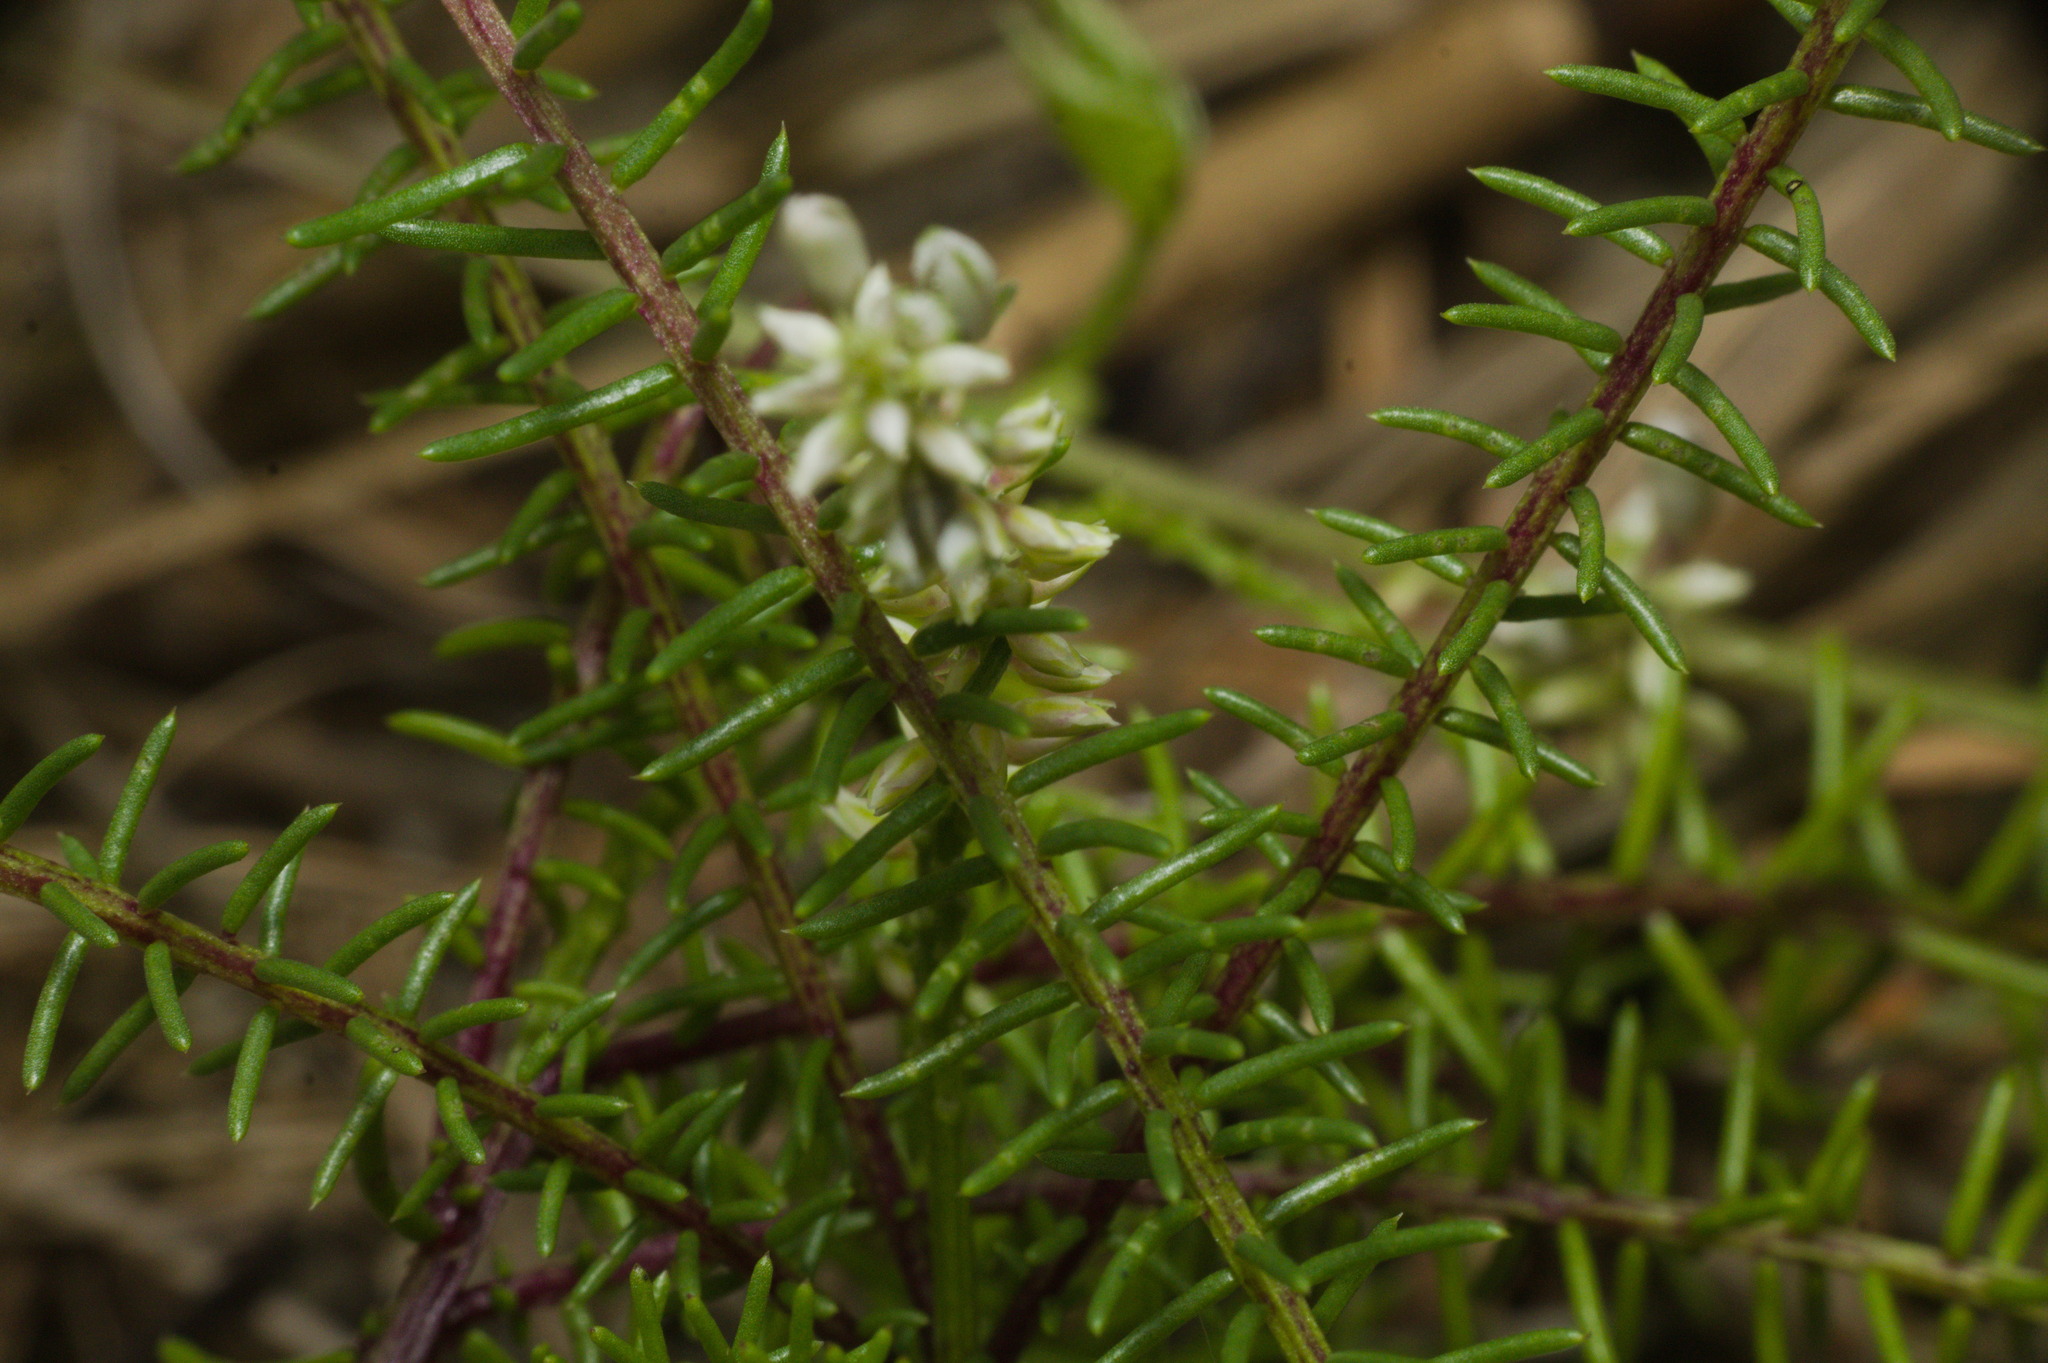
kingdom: Plantae
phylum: Tracheophyta
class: Magnoliopsida
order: Fabales
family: Polygalaceae
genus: Polygala
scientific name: Polygala cyparissias
